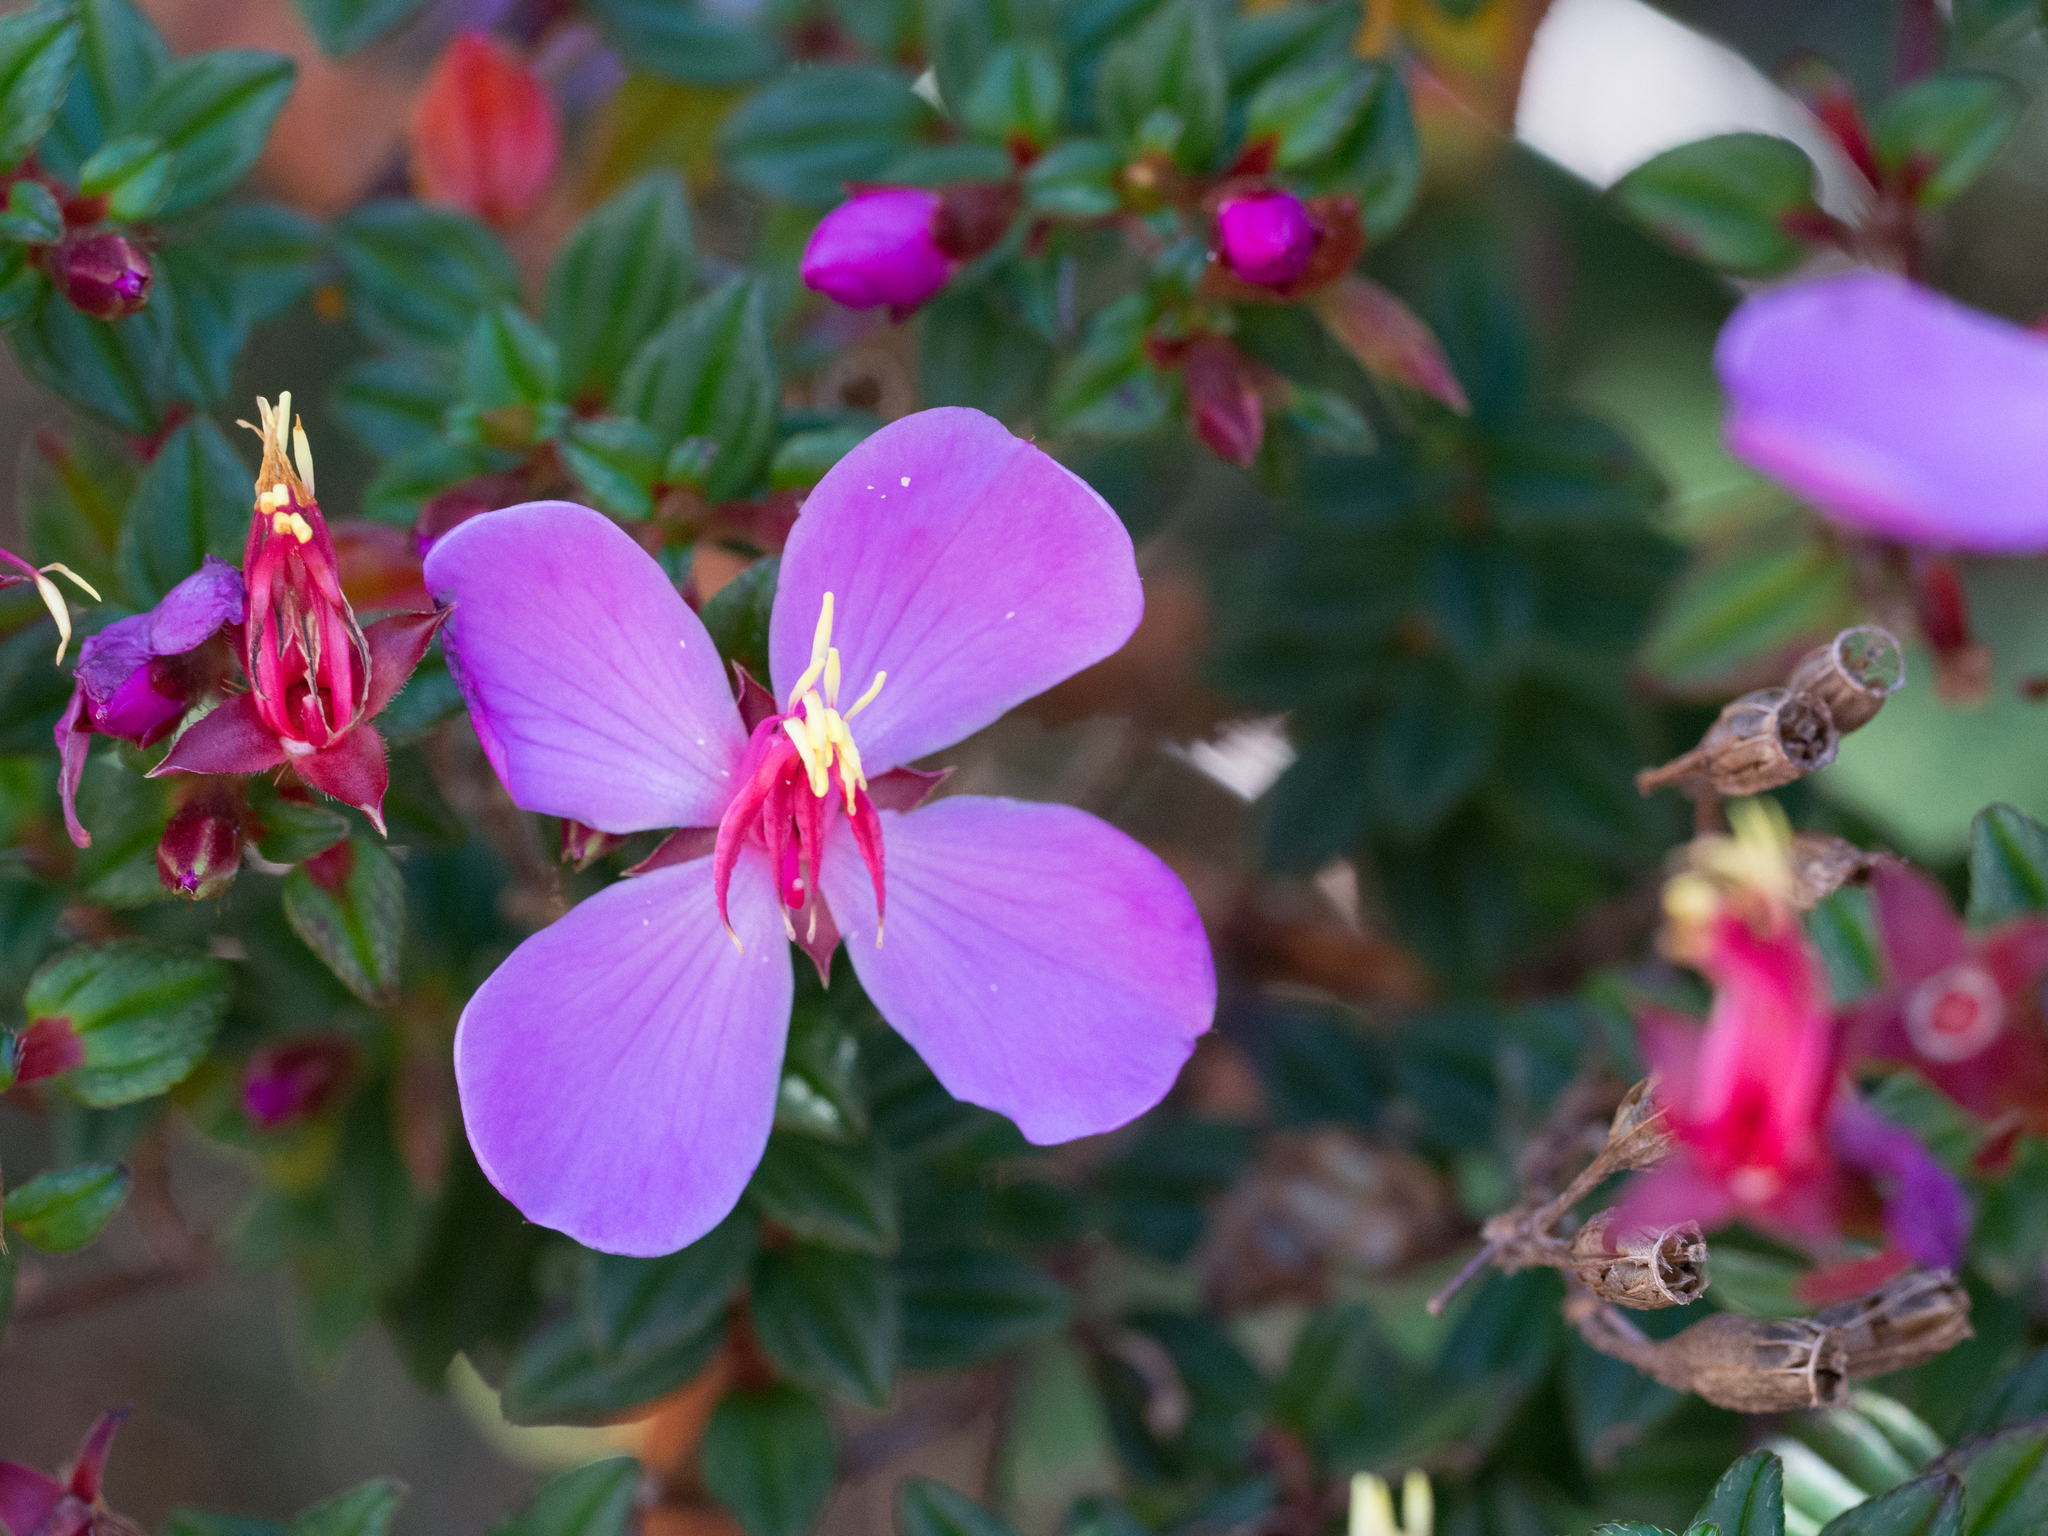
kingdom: Plantae
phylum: Tracheophyta
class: Magnoliopsida
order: Myrtales
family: Melastomataceae
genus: Monochaetum
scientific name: Monochaetum vulcanicum
